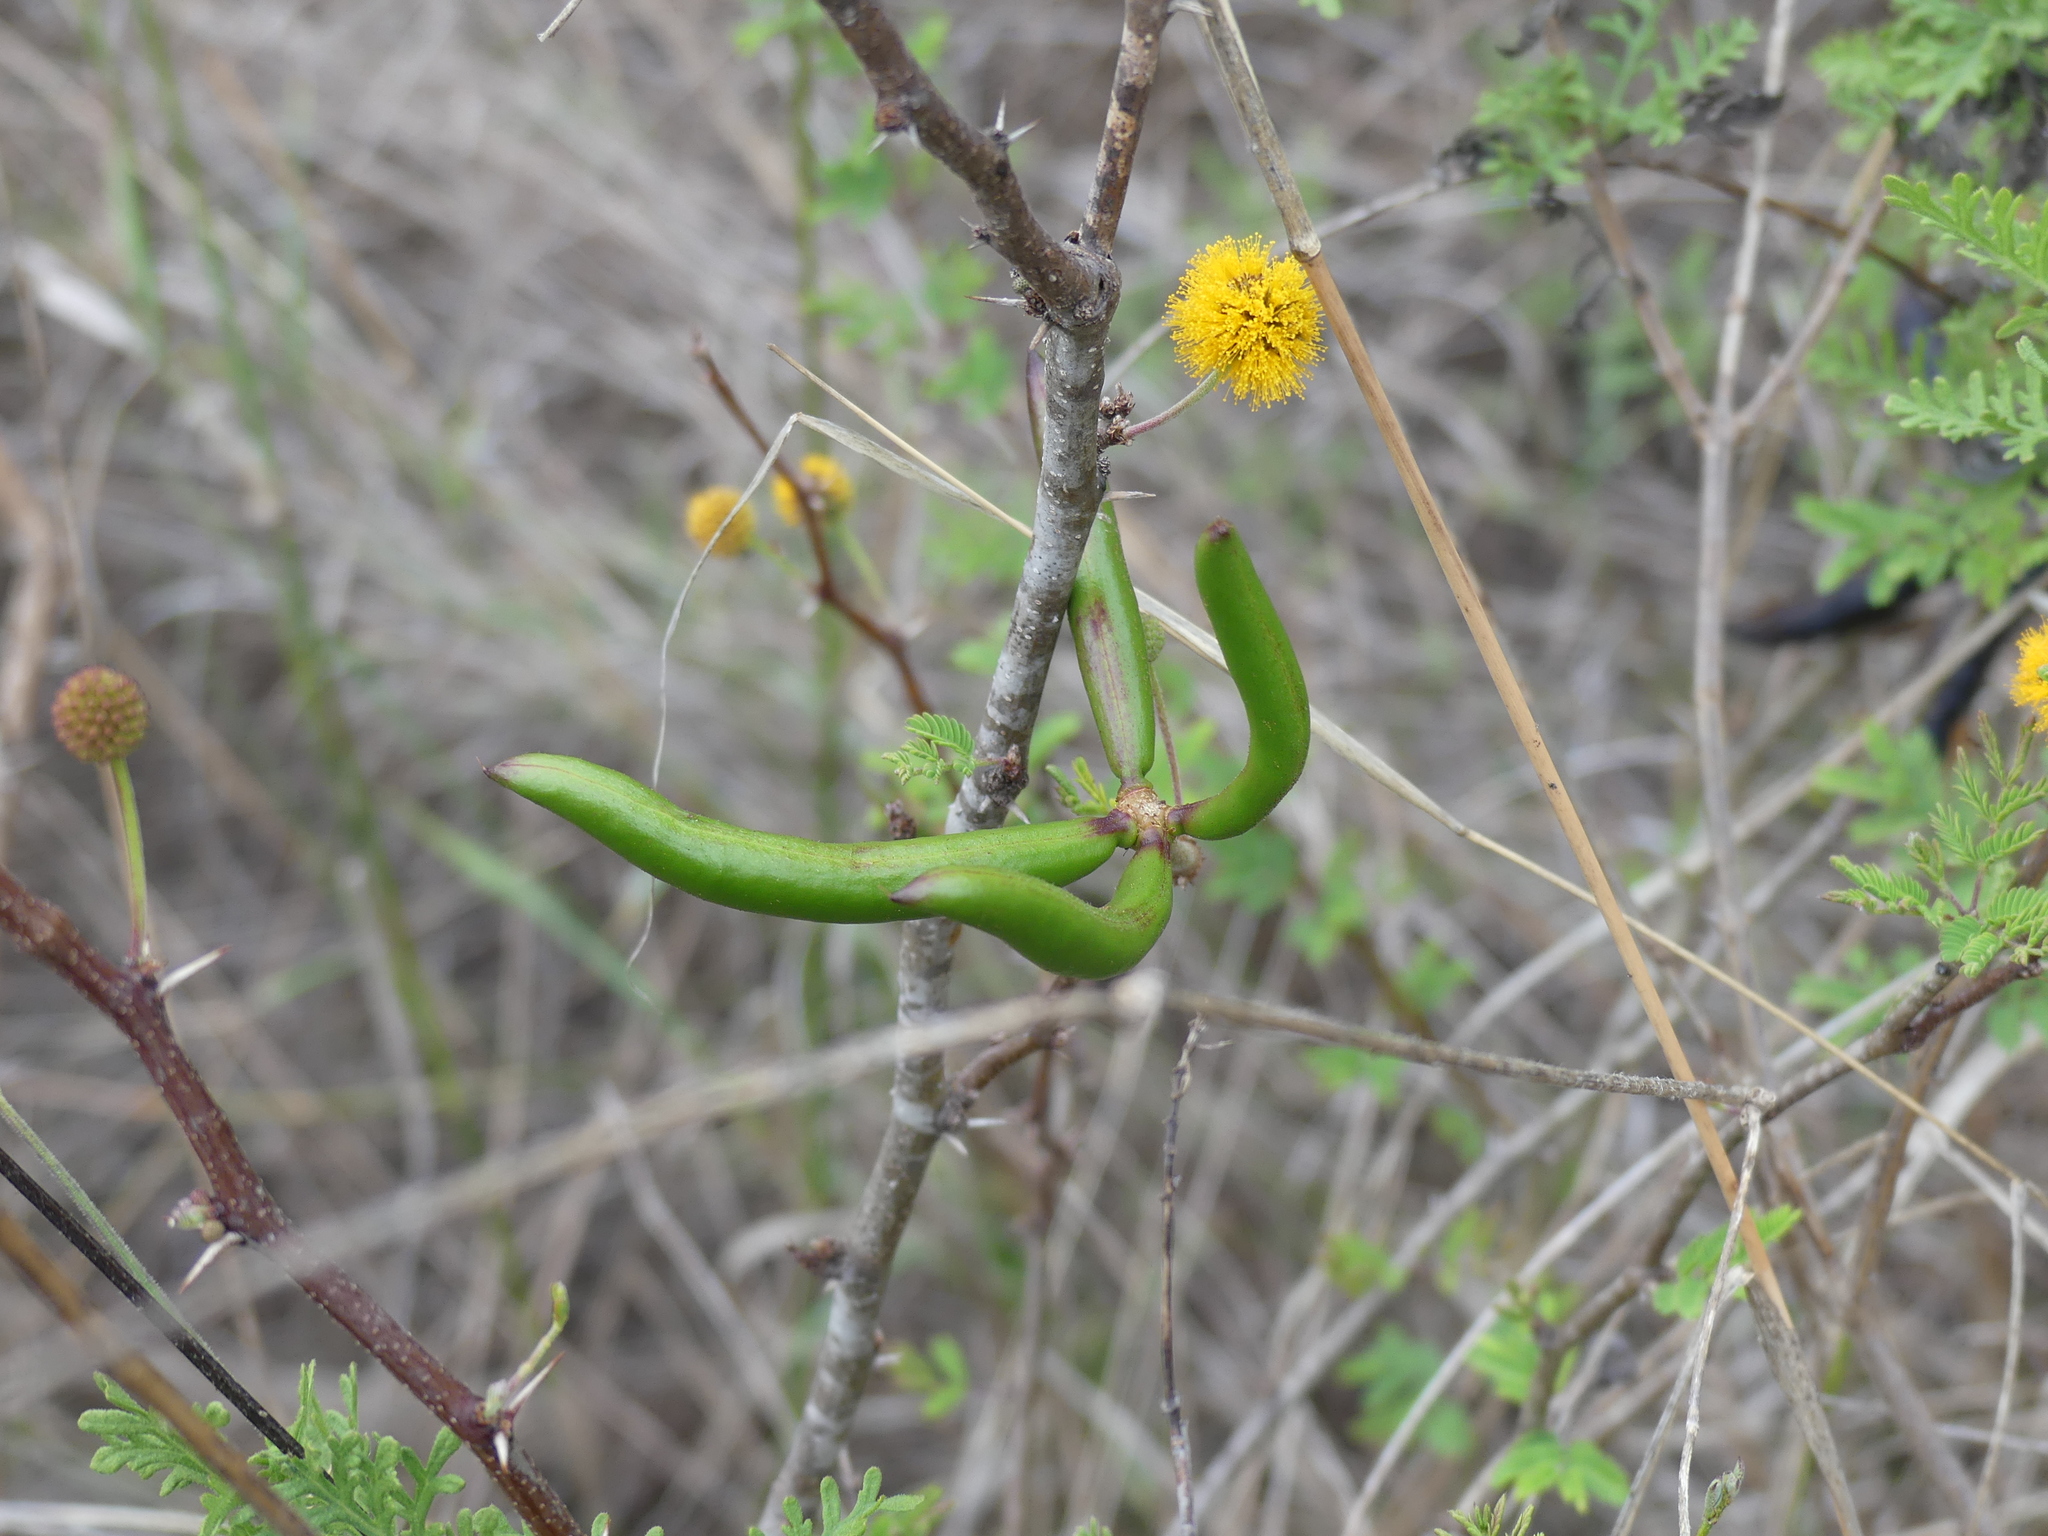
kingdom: Plantae
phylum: Tracheophyta
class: Magnoliopsida
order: Fabales
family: Fabaceae
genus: Vachellia
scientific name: Vachellia farnesiana
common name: Sweet acacia
